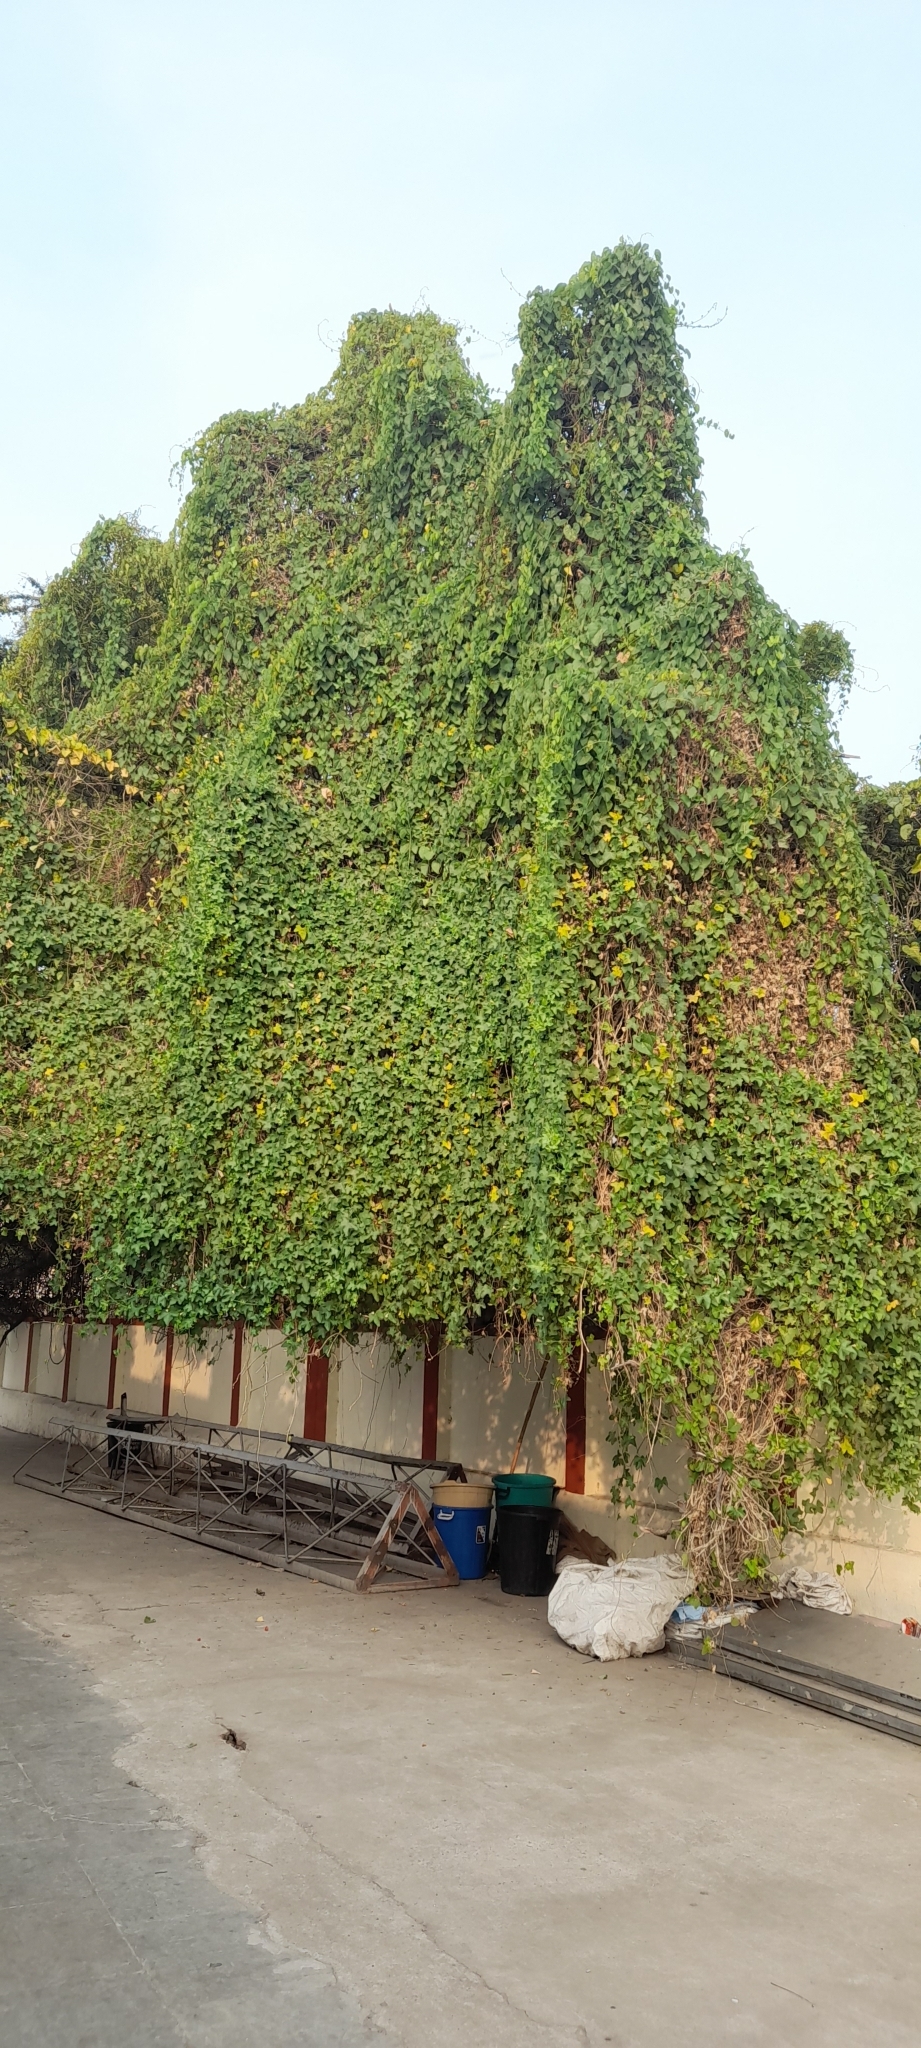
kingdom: Plantae
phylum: Tracheophyta
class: Magnoliopsida
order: Cucurbitales
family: Cucurbitaceae
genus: Coccinia
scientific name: Coccinia grandis
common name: Ivy gourd
